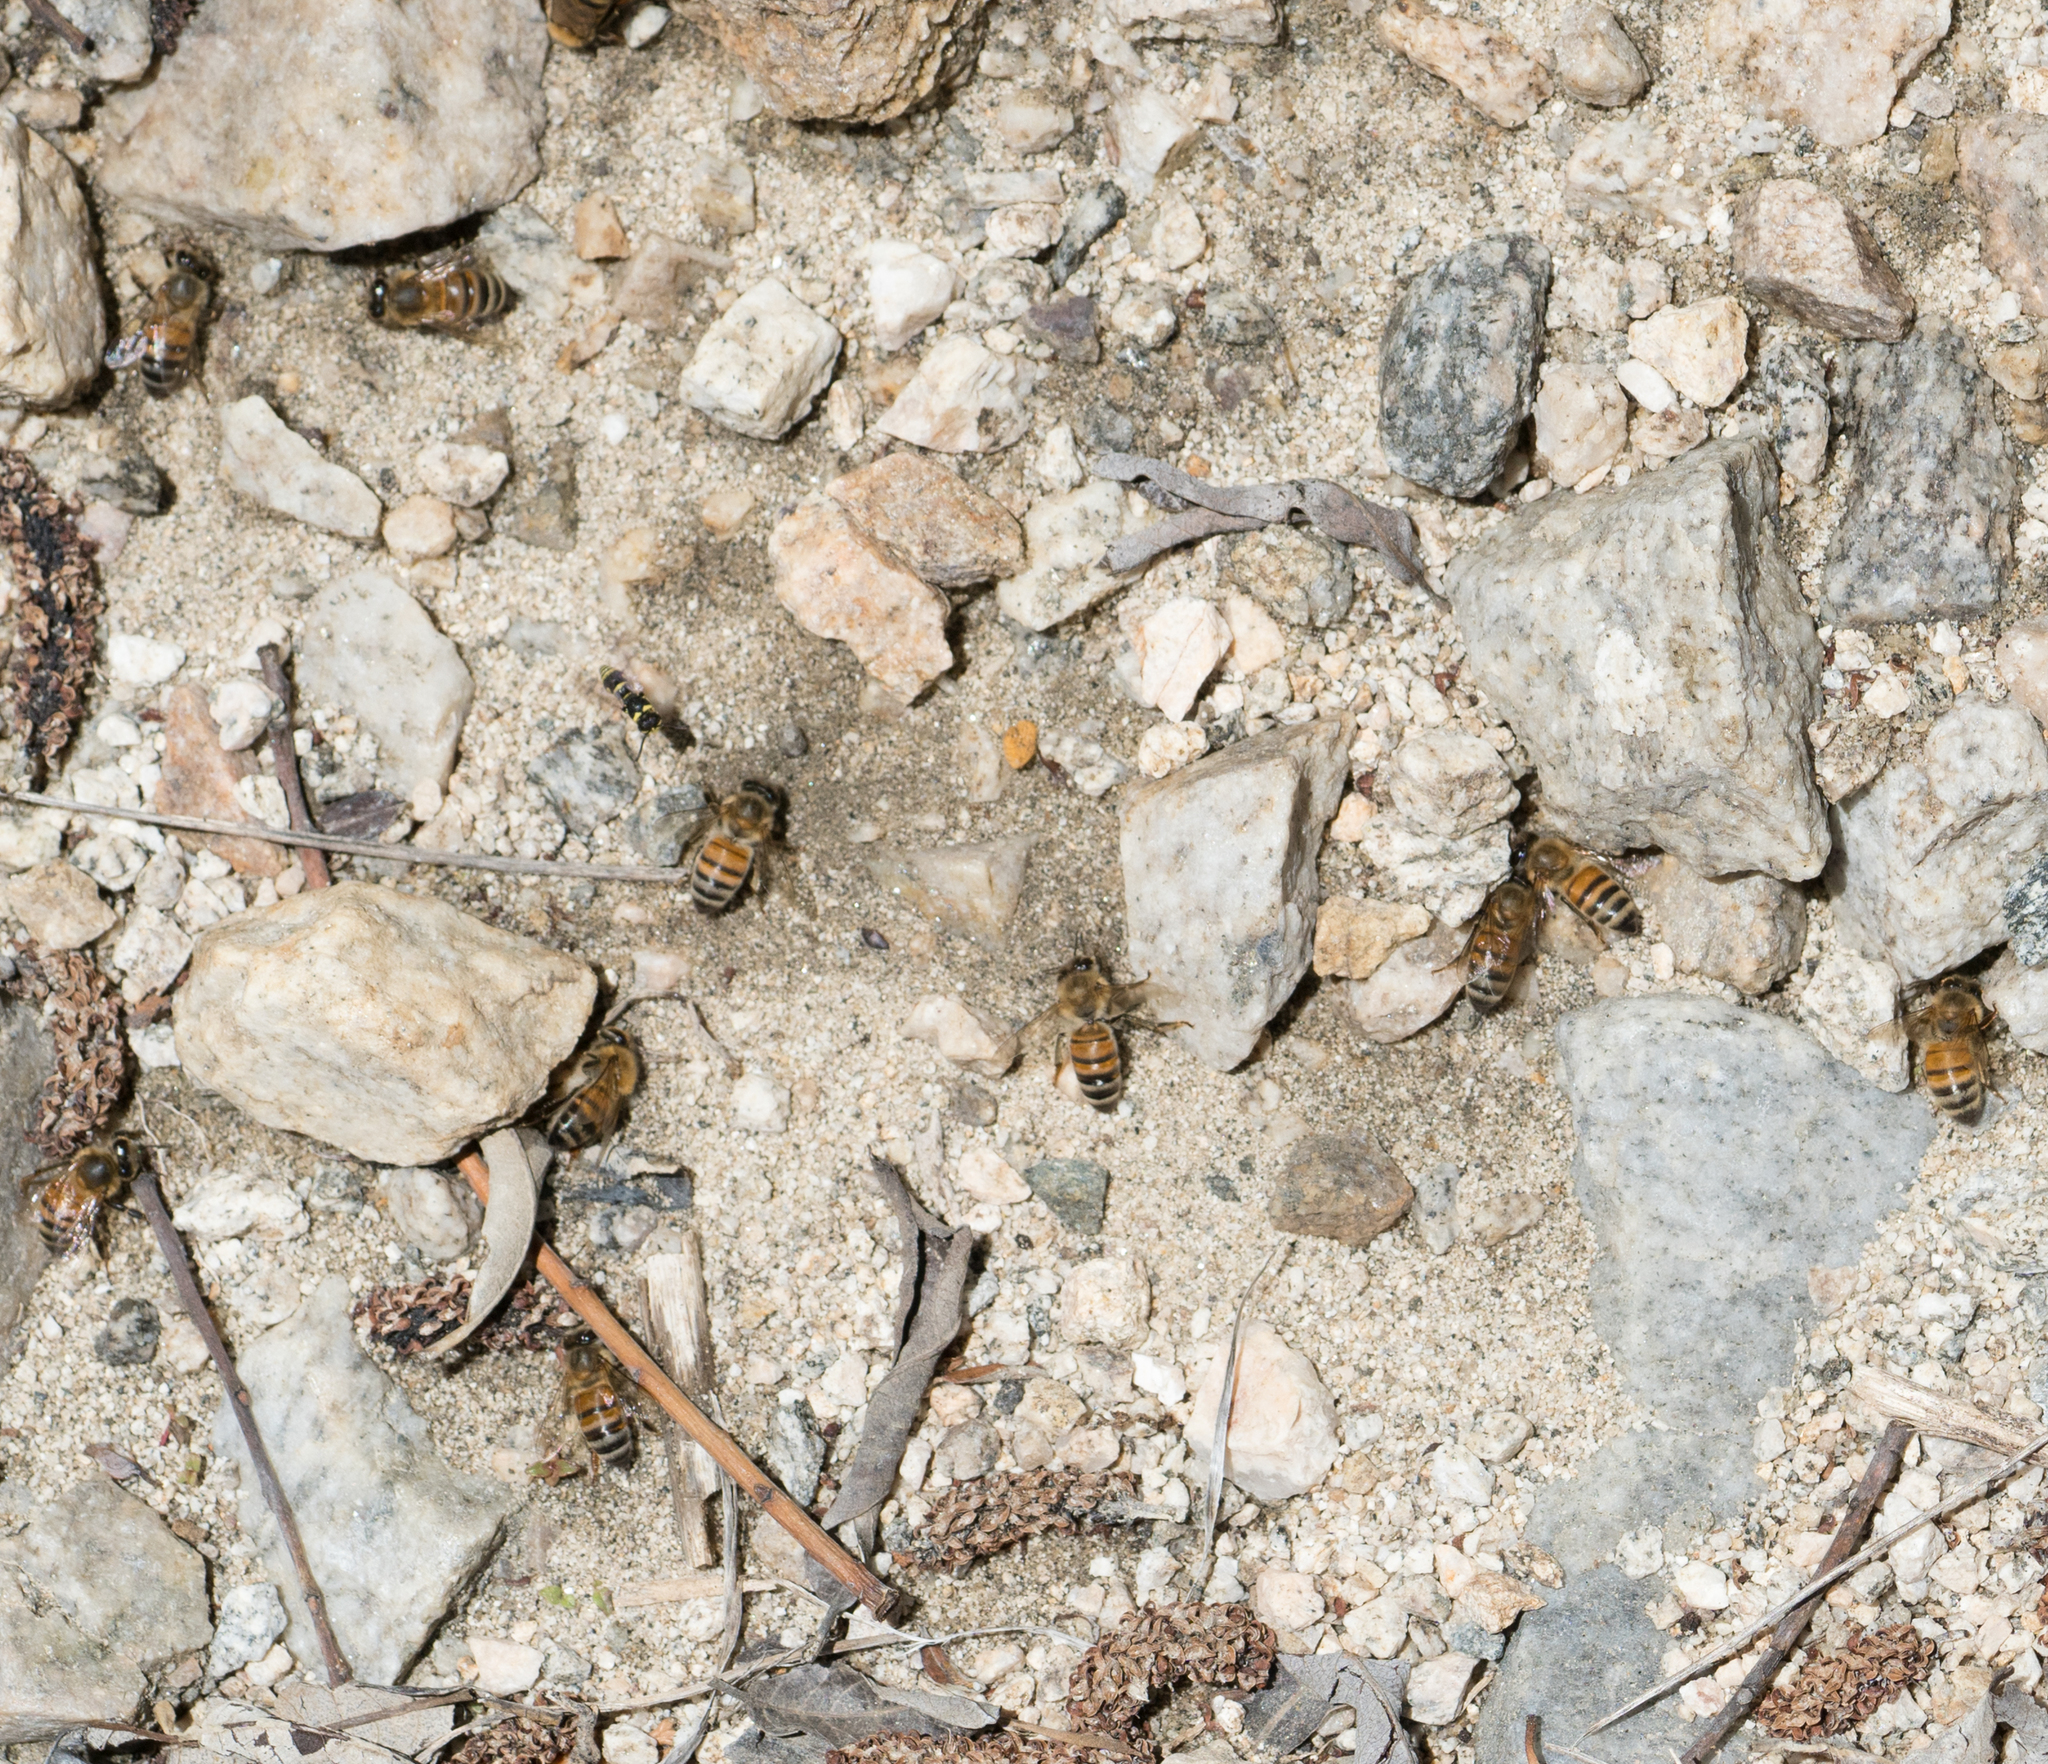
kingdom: Animalia
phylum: Arthropoda
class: Insecta
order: Hymenoptera
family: Apidae
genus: Apis
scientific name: Apis mellifera
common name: Honey bee
